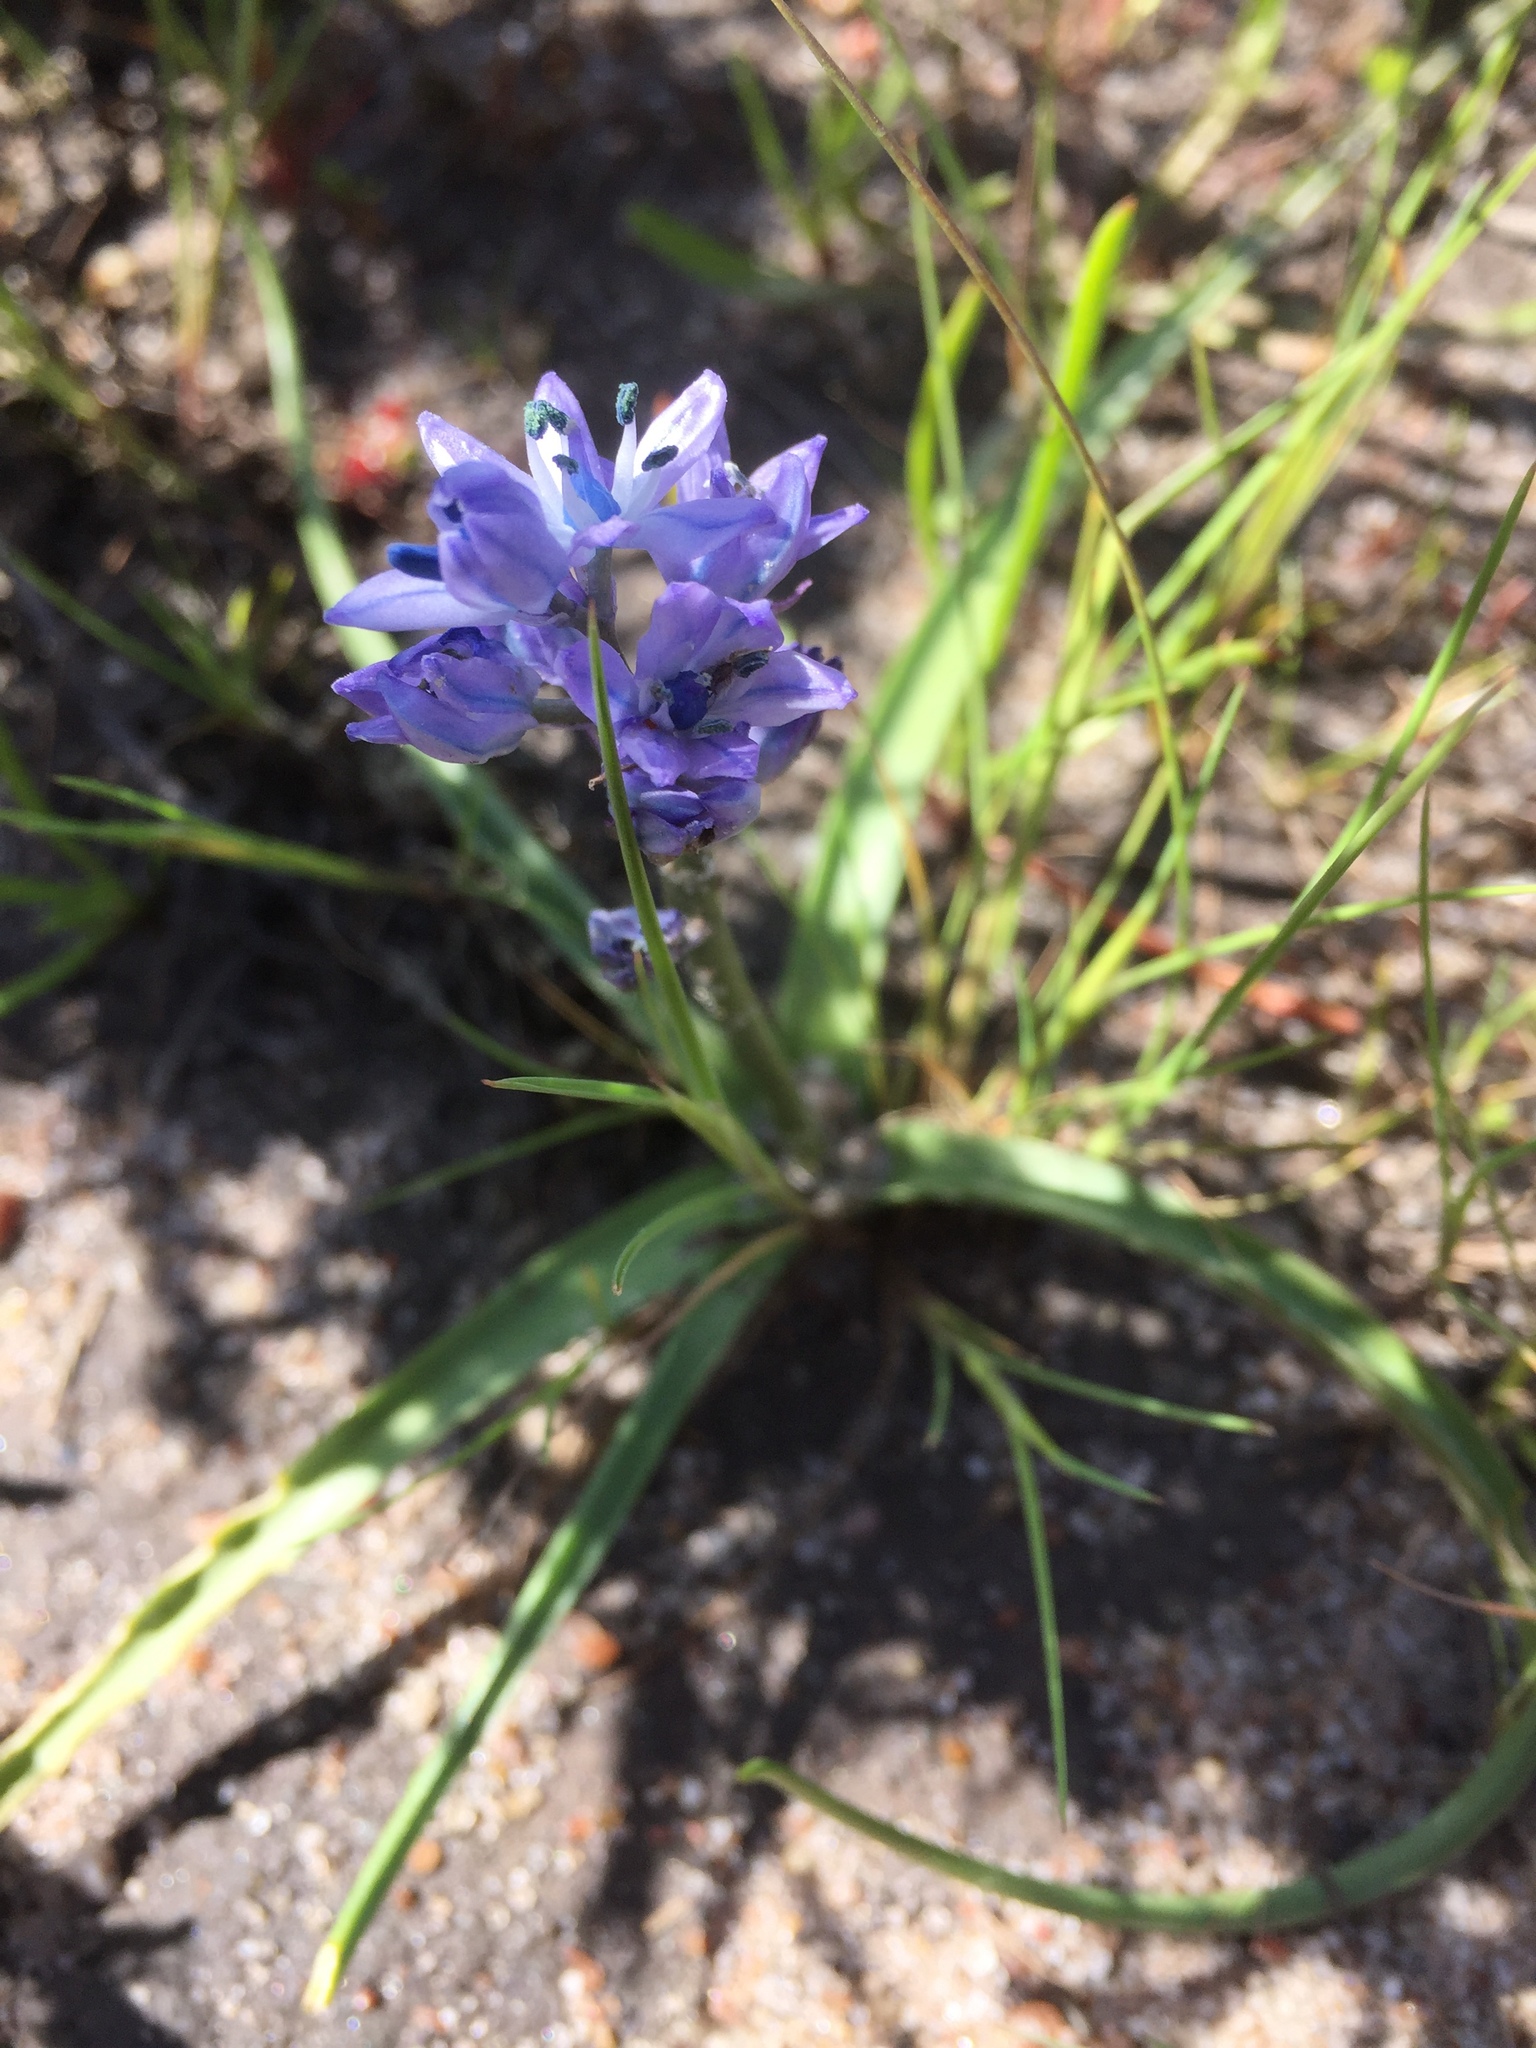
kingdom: Plantae
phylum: Tracheophyta
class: Liliopsida
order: Asparagales
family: Asparagaceae
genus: Hyacinthoides
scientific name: Hyacinthoides mauritanica
